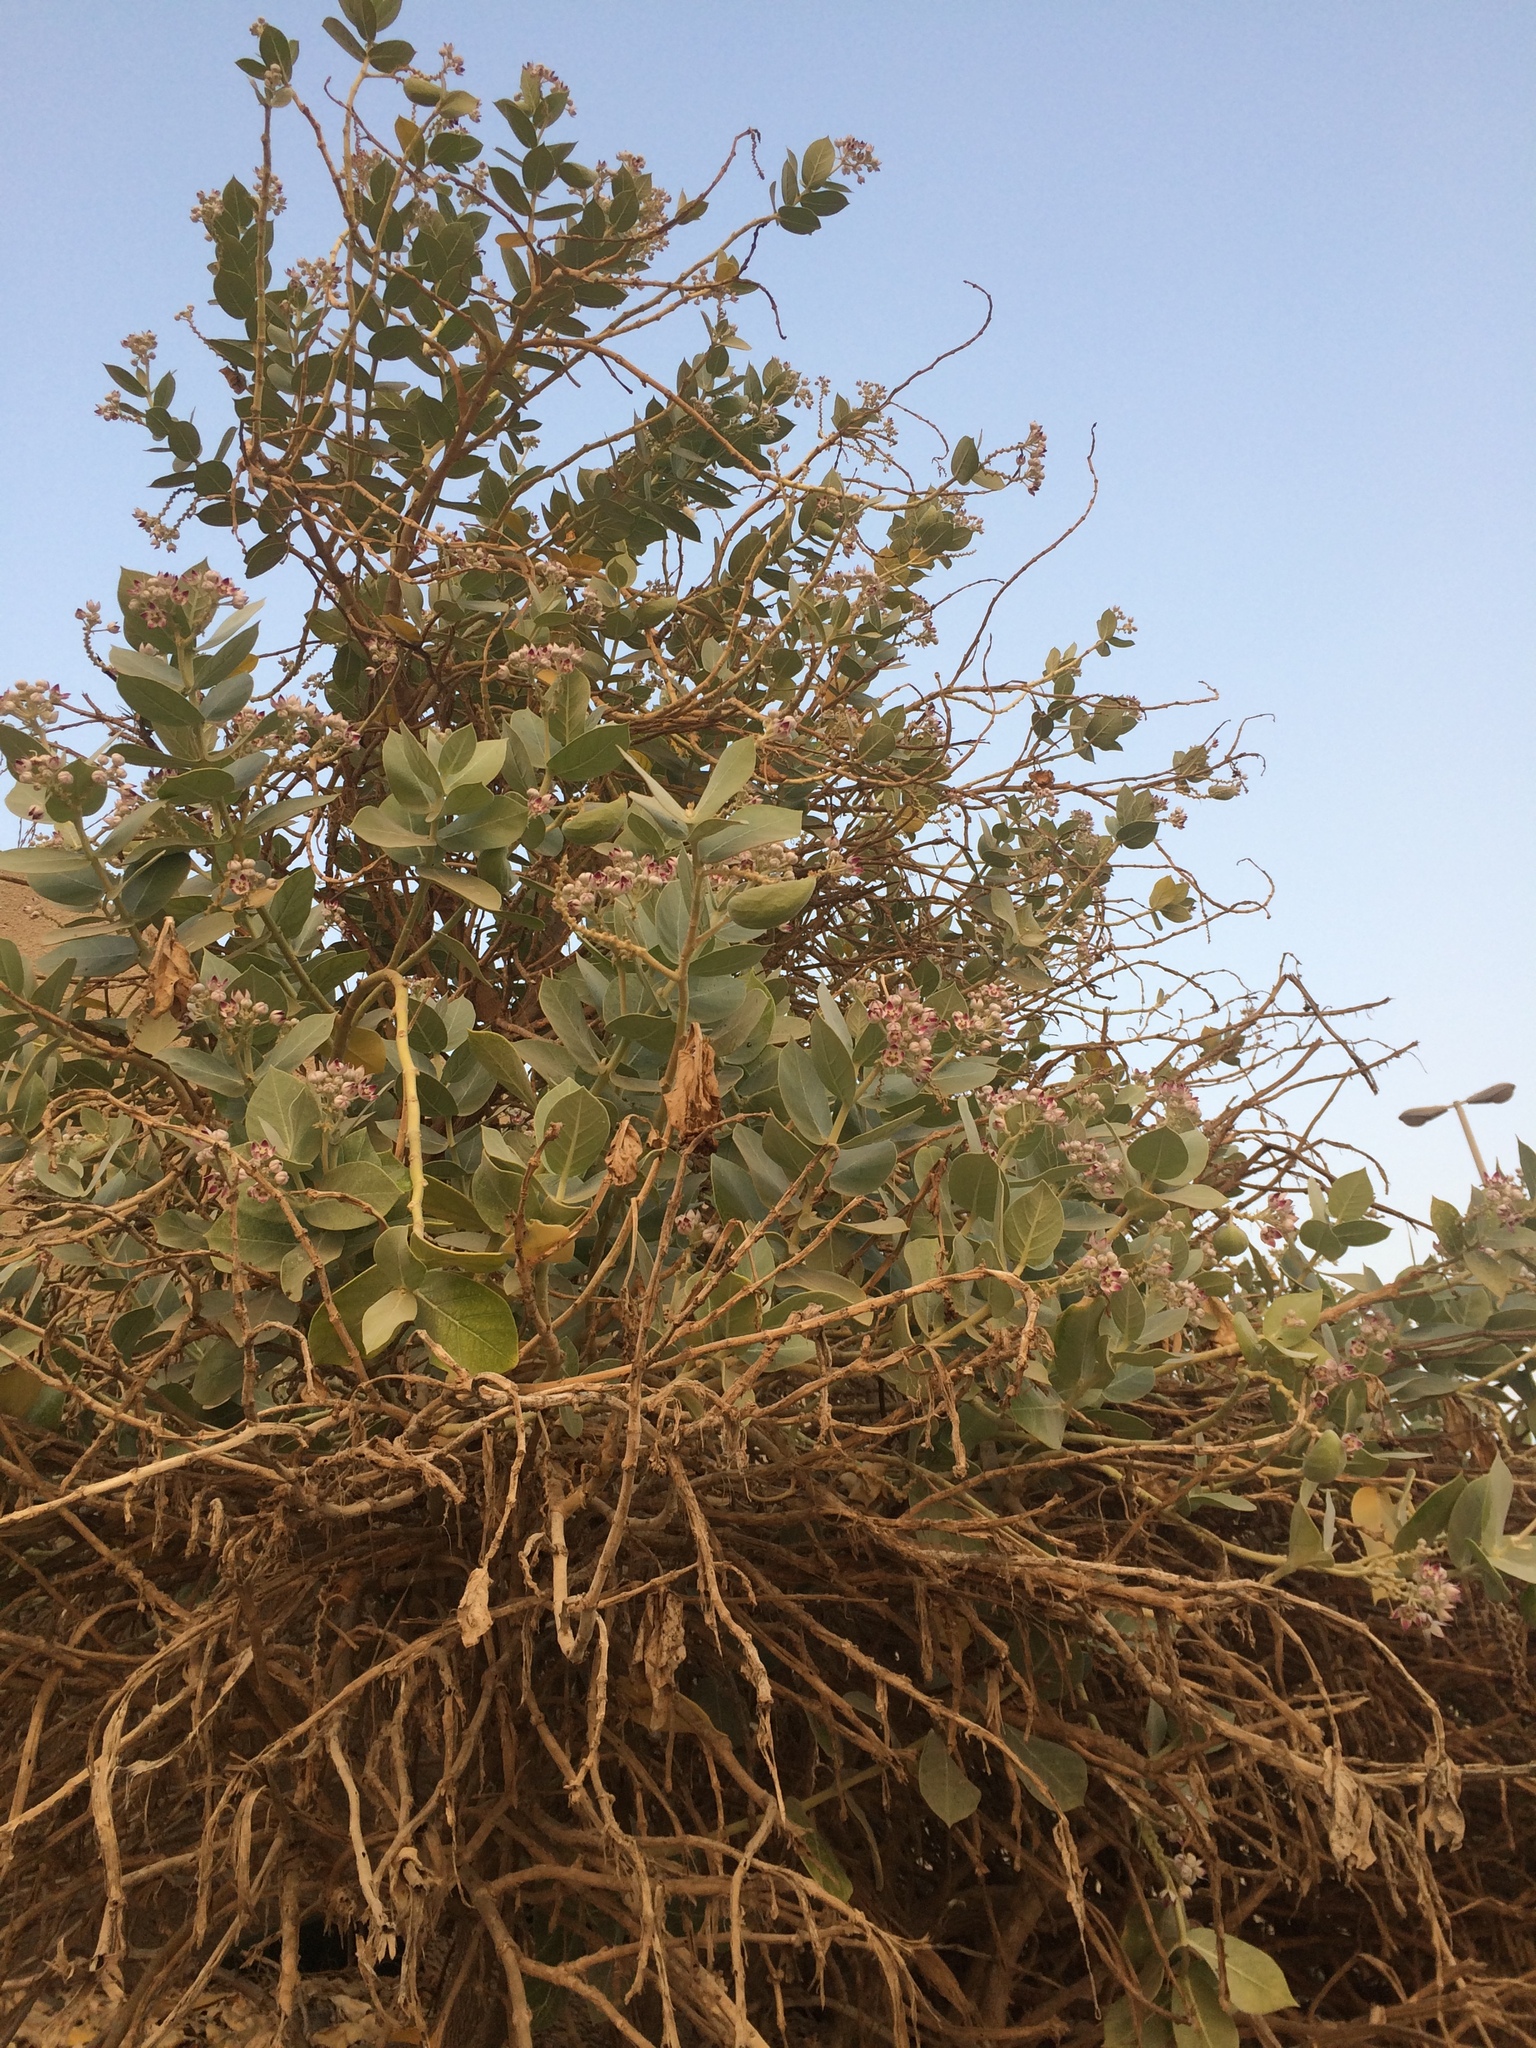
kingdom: Plantae
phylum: Tracheophyta
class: Magnoliopsida
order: Gentianales
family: Apocynaceae
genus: Calotropis
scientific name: Calotropis procera
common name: Roostertree
